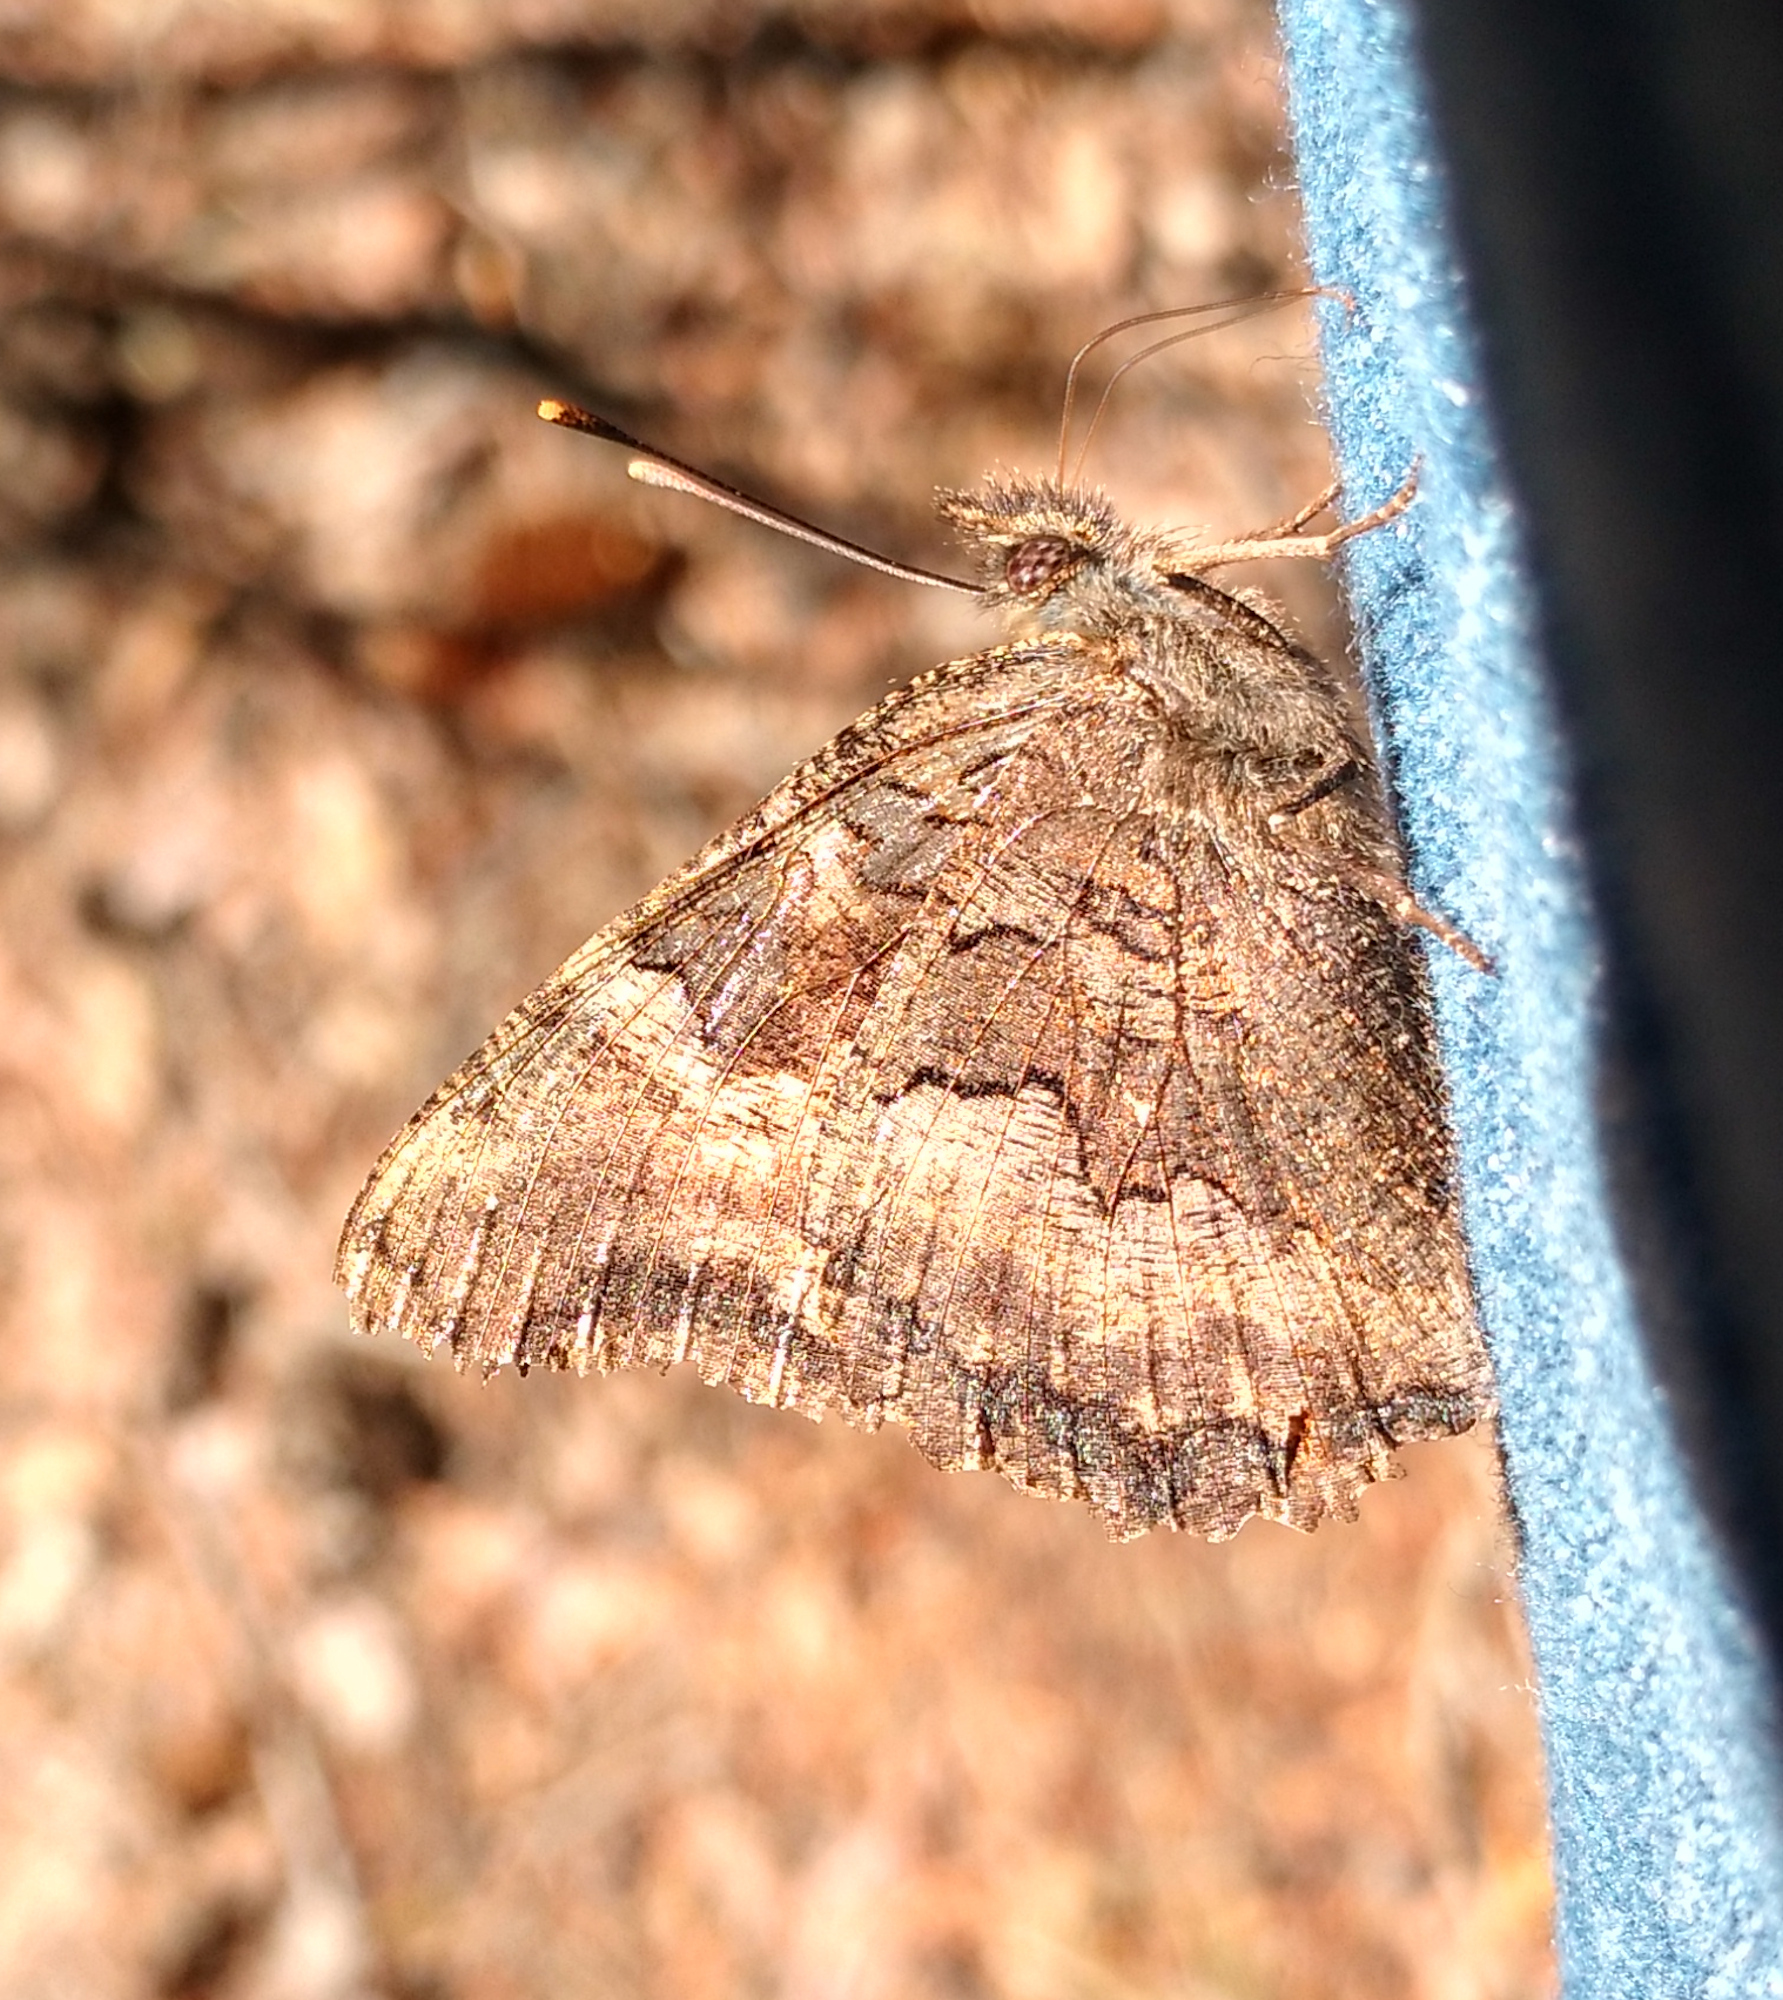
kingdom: Animalia
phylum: Arthropoda
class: Insecta
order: Lepidoptera
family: Nymphalidae
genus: Nymphalis
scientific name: Nymphalis californica
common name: California tortoiseshell
